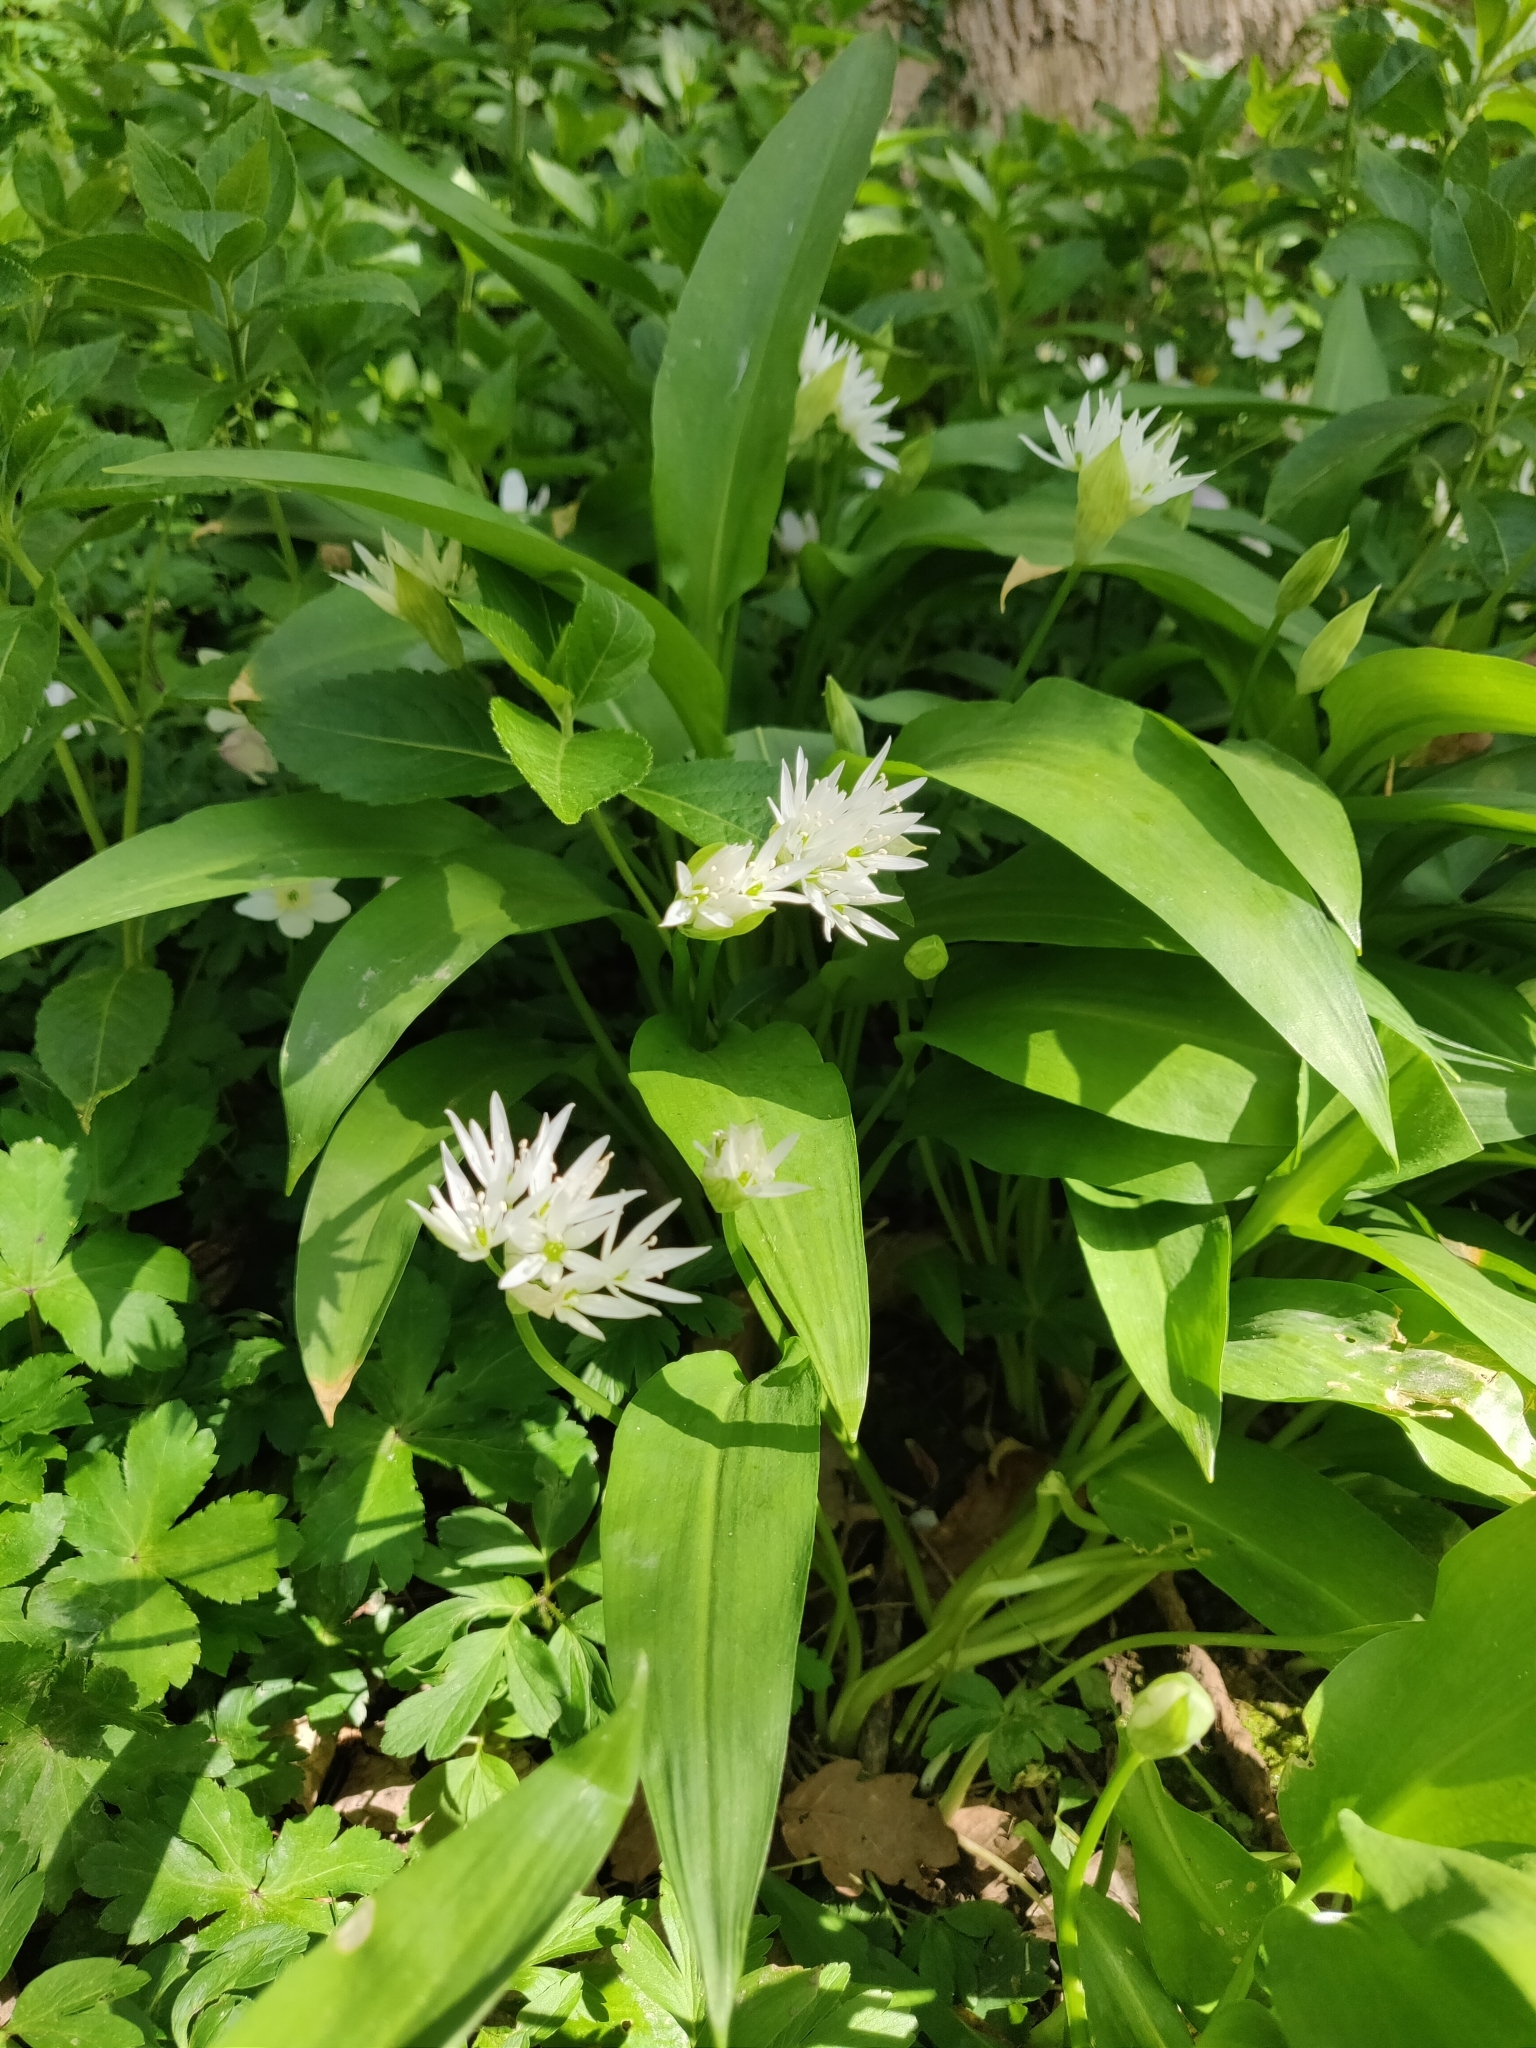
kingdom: Plantae
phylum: Tracheophyta
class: Liliopsida
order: Asparagales
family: Amaryllidaceae
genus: Allium
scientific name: Allium ursinum
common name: Ramsons
